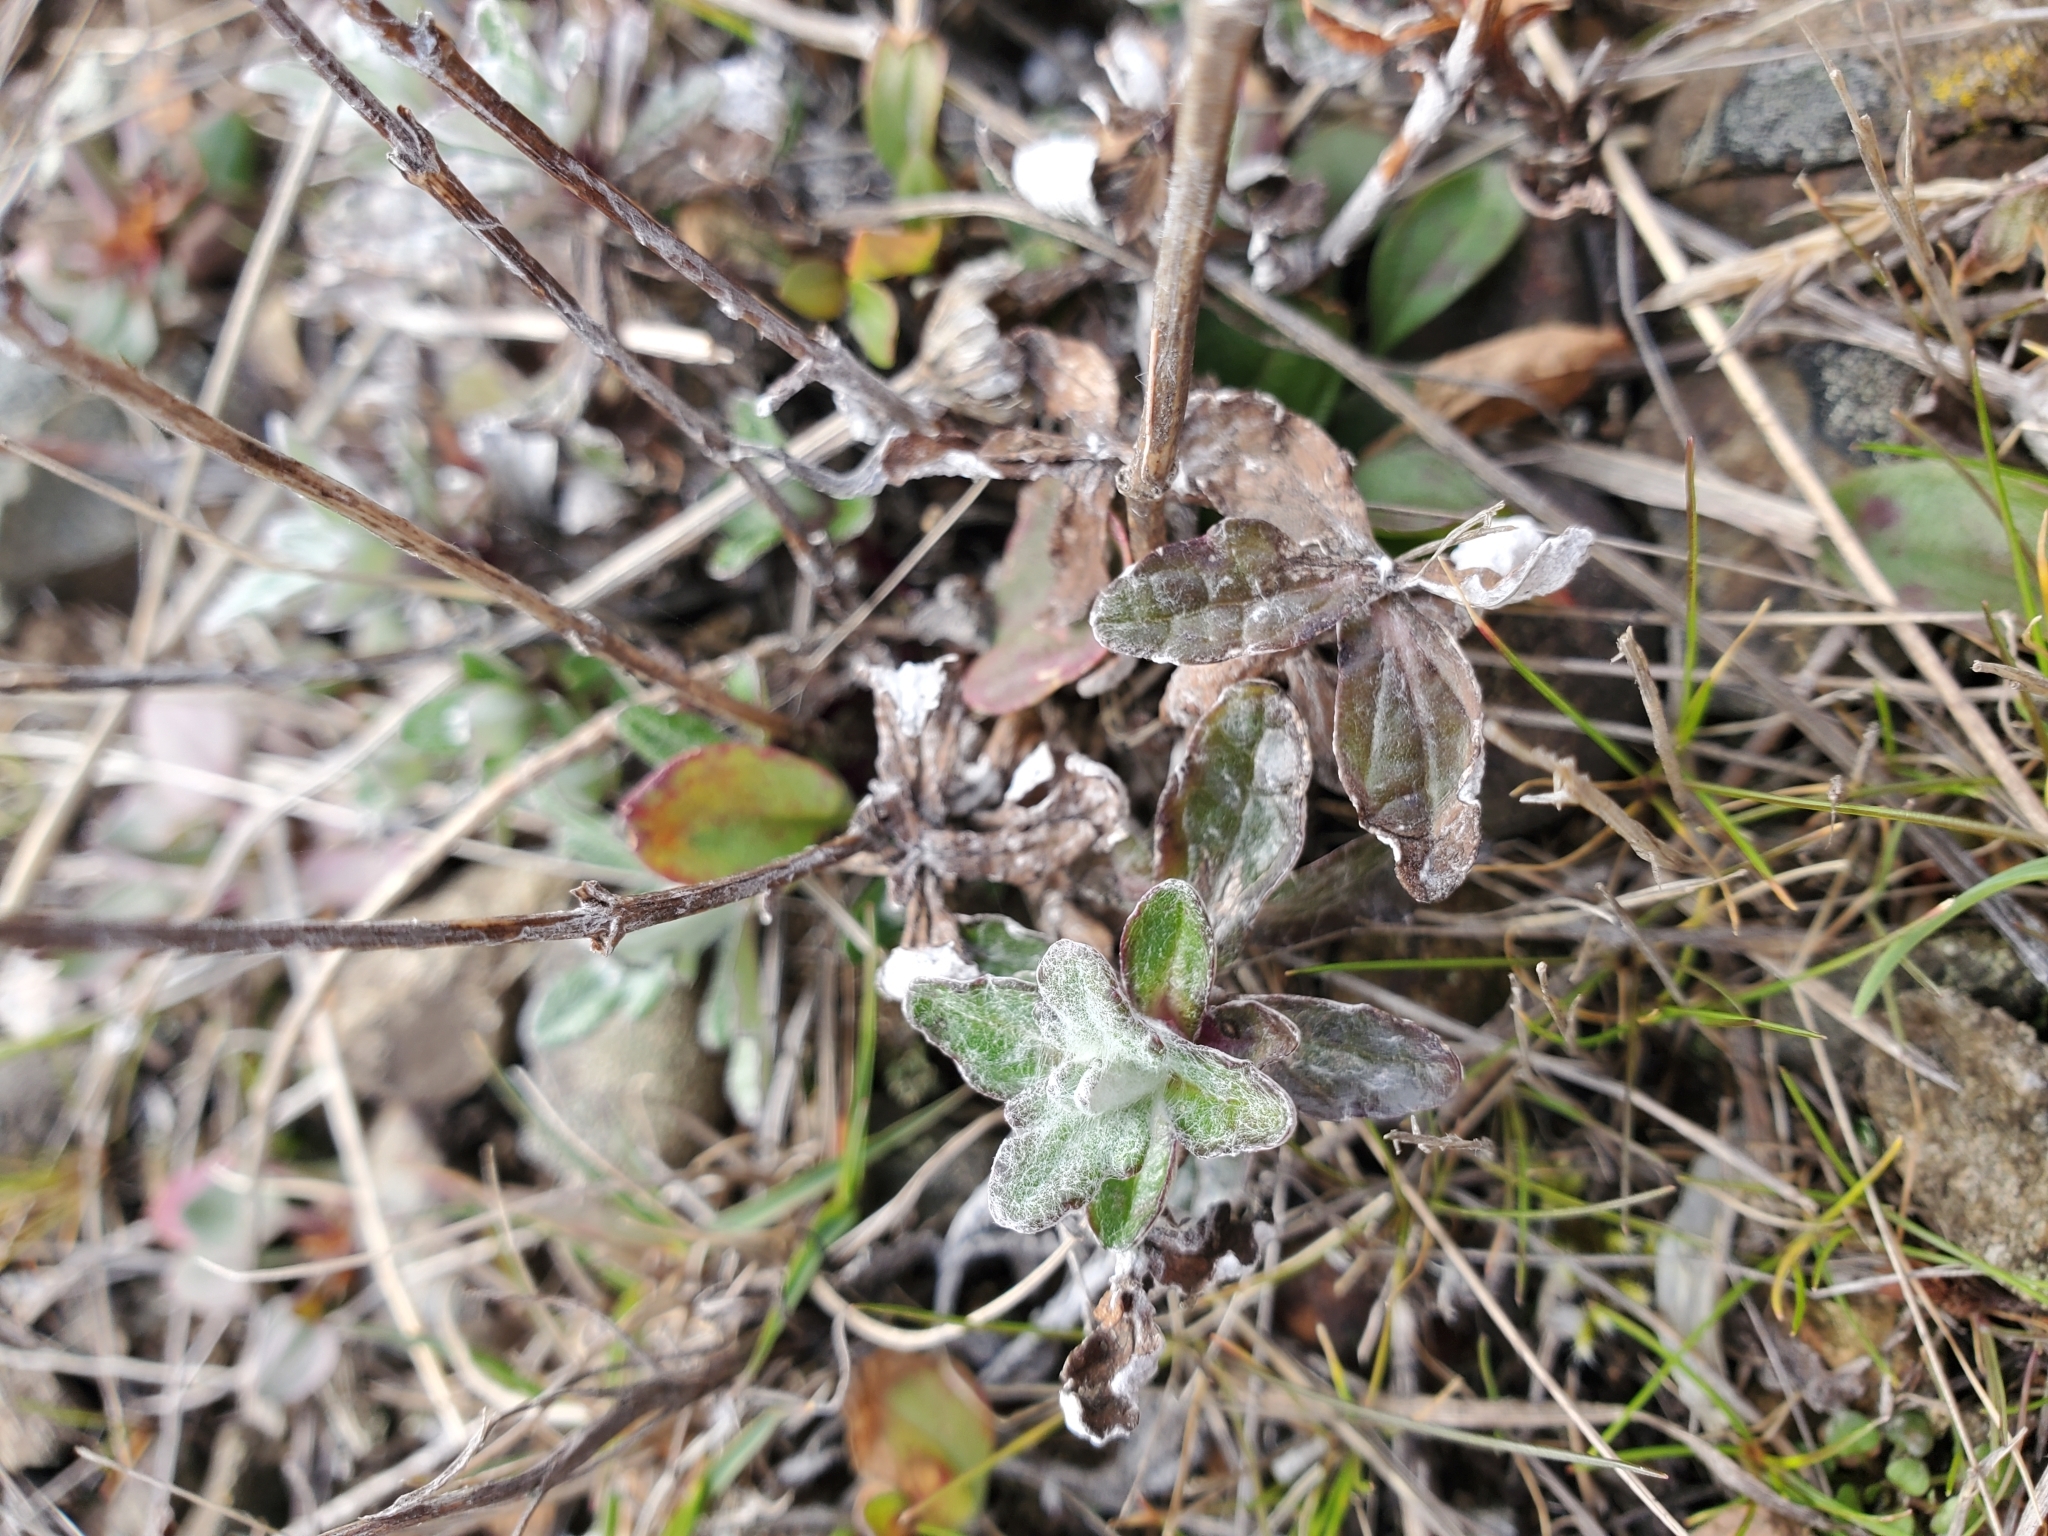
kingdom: Plantae
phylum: Tracheophyta
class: Magnoliopsida
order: Asterales
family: Asteraceae
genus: Eriophyllum
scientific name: Eriophyllum lanatum
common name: Common woolly-sunflower
